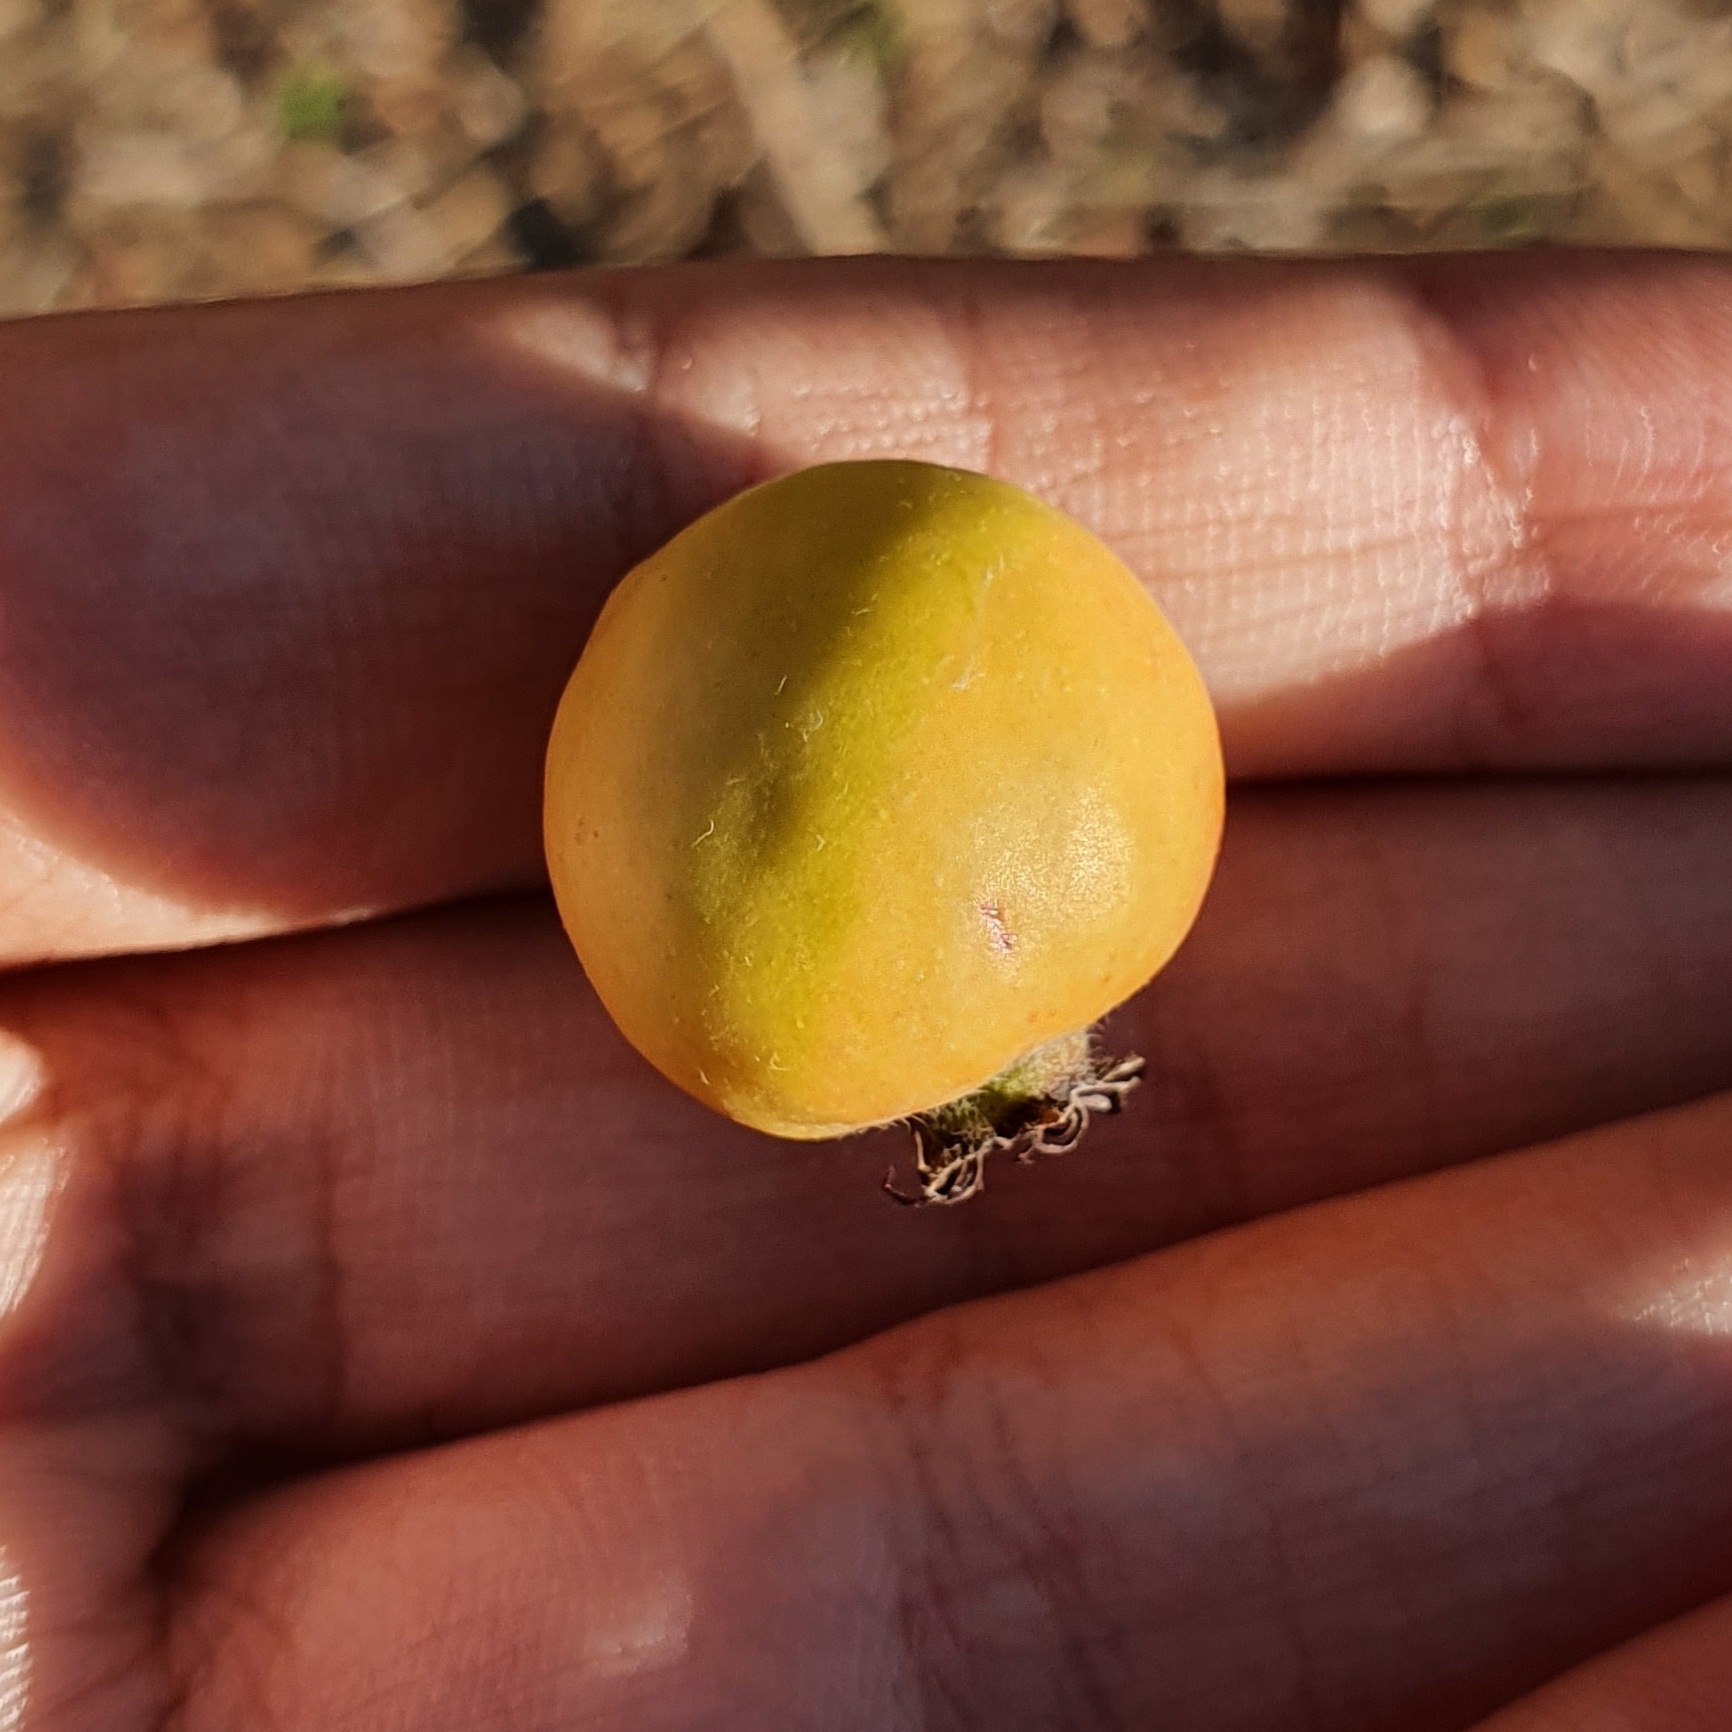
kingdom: Plantae
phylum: Tracheophyta
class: Magnoliopsida
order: Rosales
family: Rosaceae
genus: Crataegus
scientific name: Crataegus azarolus
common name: Azarole
